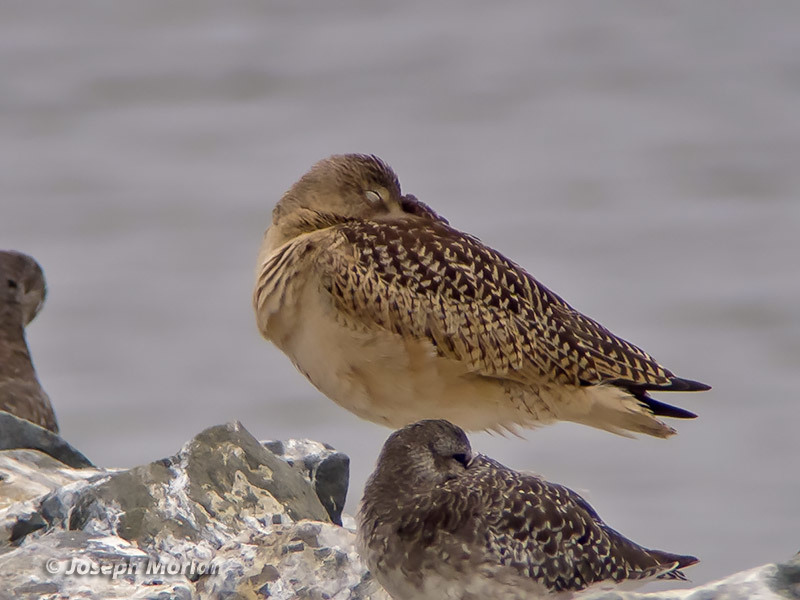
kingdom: Animalia
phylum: Chordata
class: Aves
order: Charadriiformes
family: Scolopacidae
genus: Limosa
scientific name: Limosa fedoa
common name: Marbled godwit
